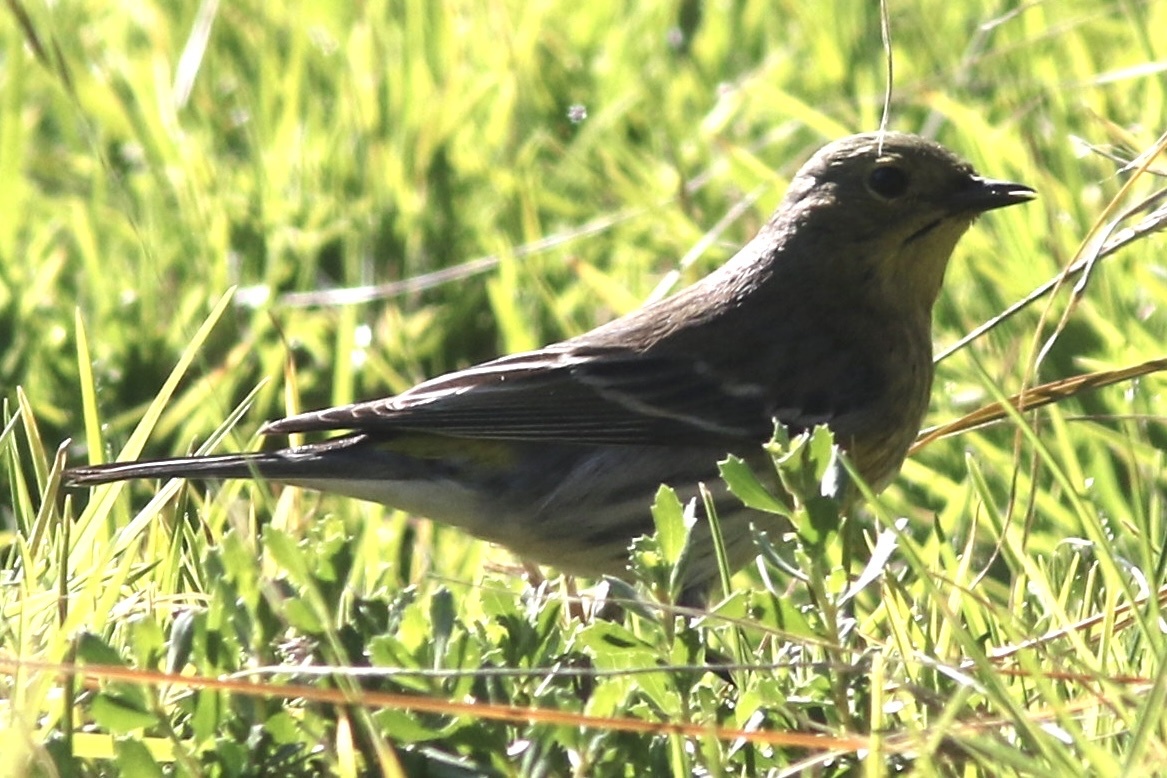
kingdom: Animalia
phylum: Chordata
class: Aves
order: Passeriformes
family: Parulidae
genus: Setophaga
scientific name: Setophaga coronata
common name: Myrtle warbler
